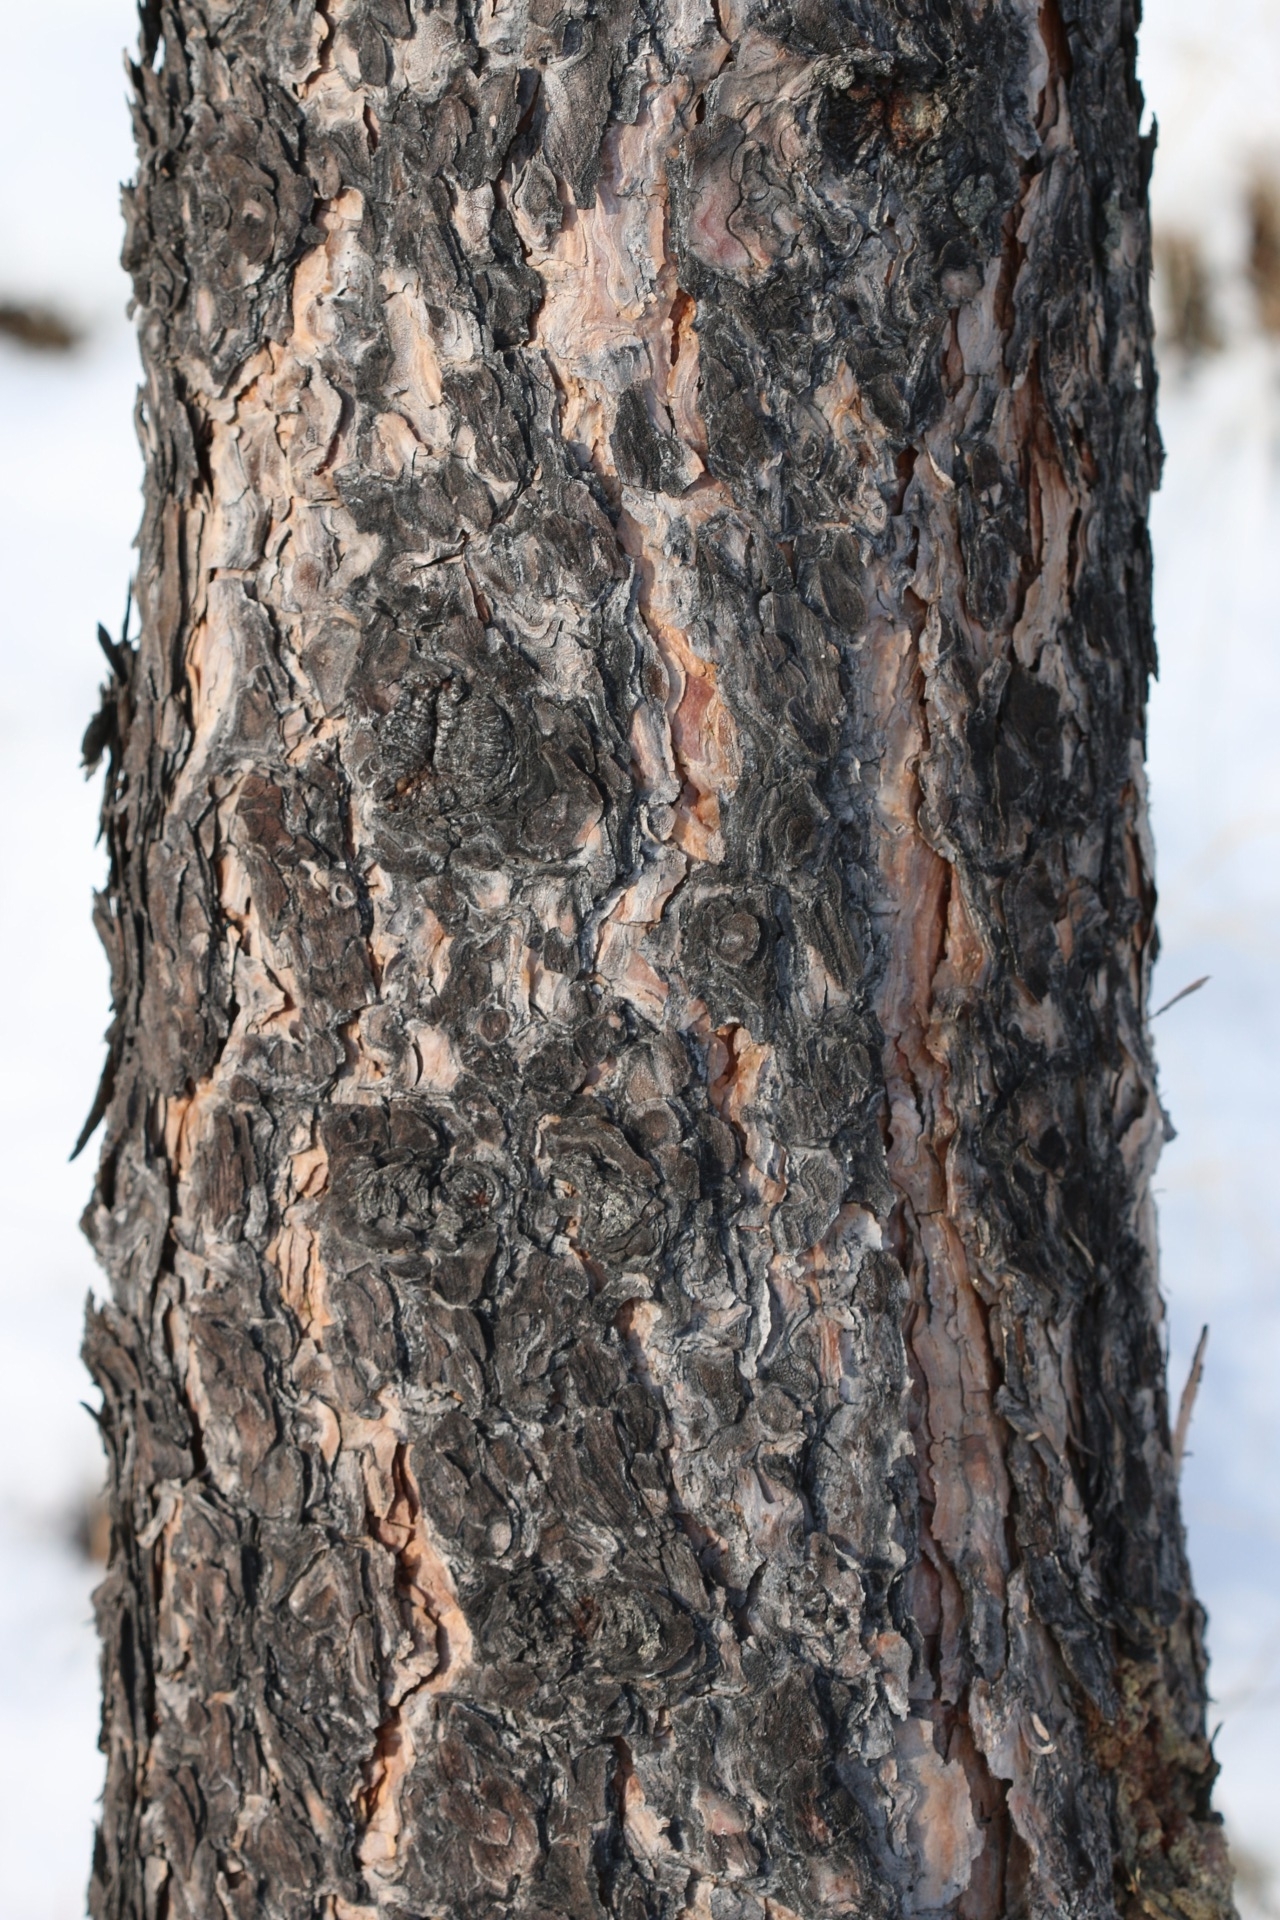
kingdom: Plantae
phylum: Tracheophyta
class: Pinopsida
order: Pinales
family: Pinaceae
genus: Pinus
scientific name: Pinus ponderosa
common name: Western yellow-pine
